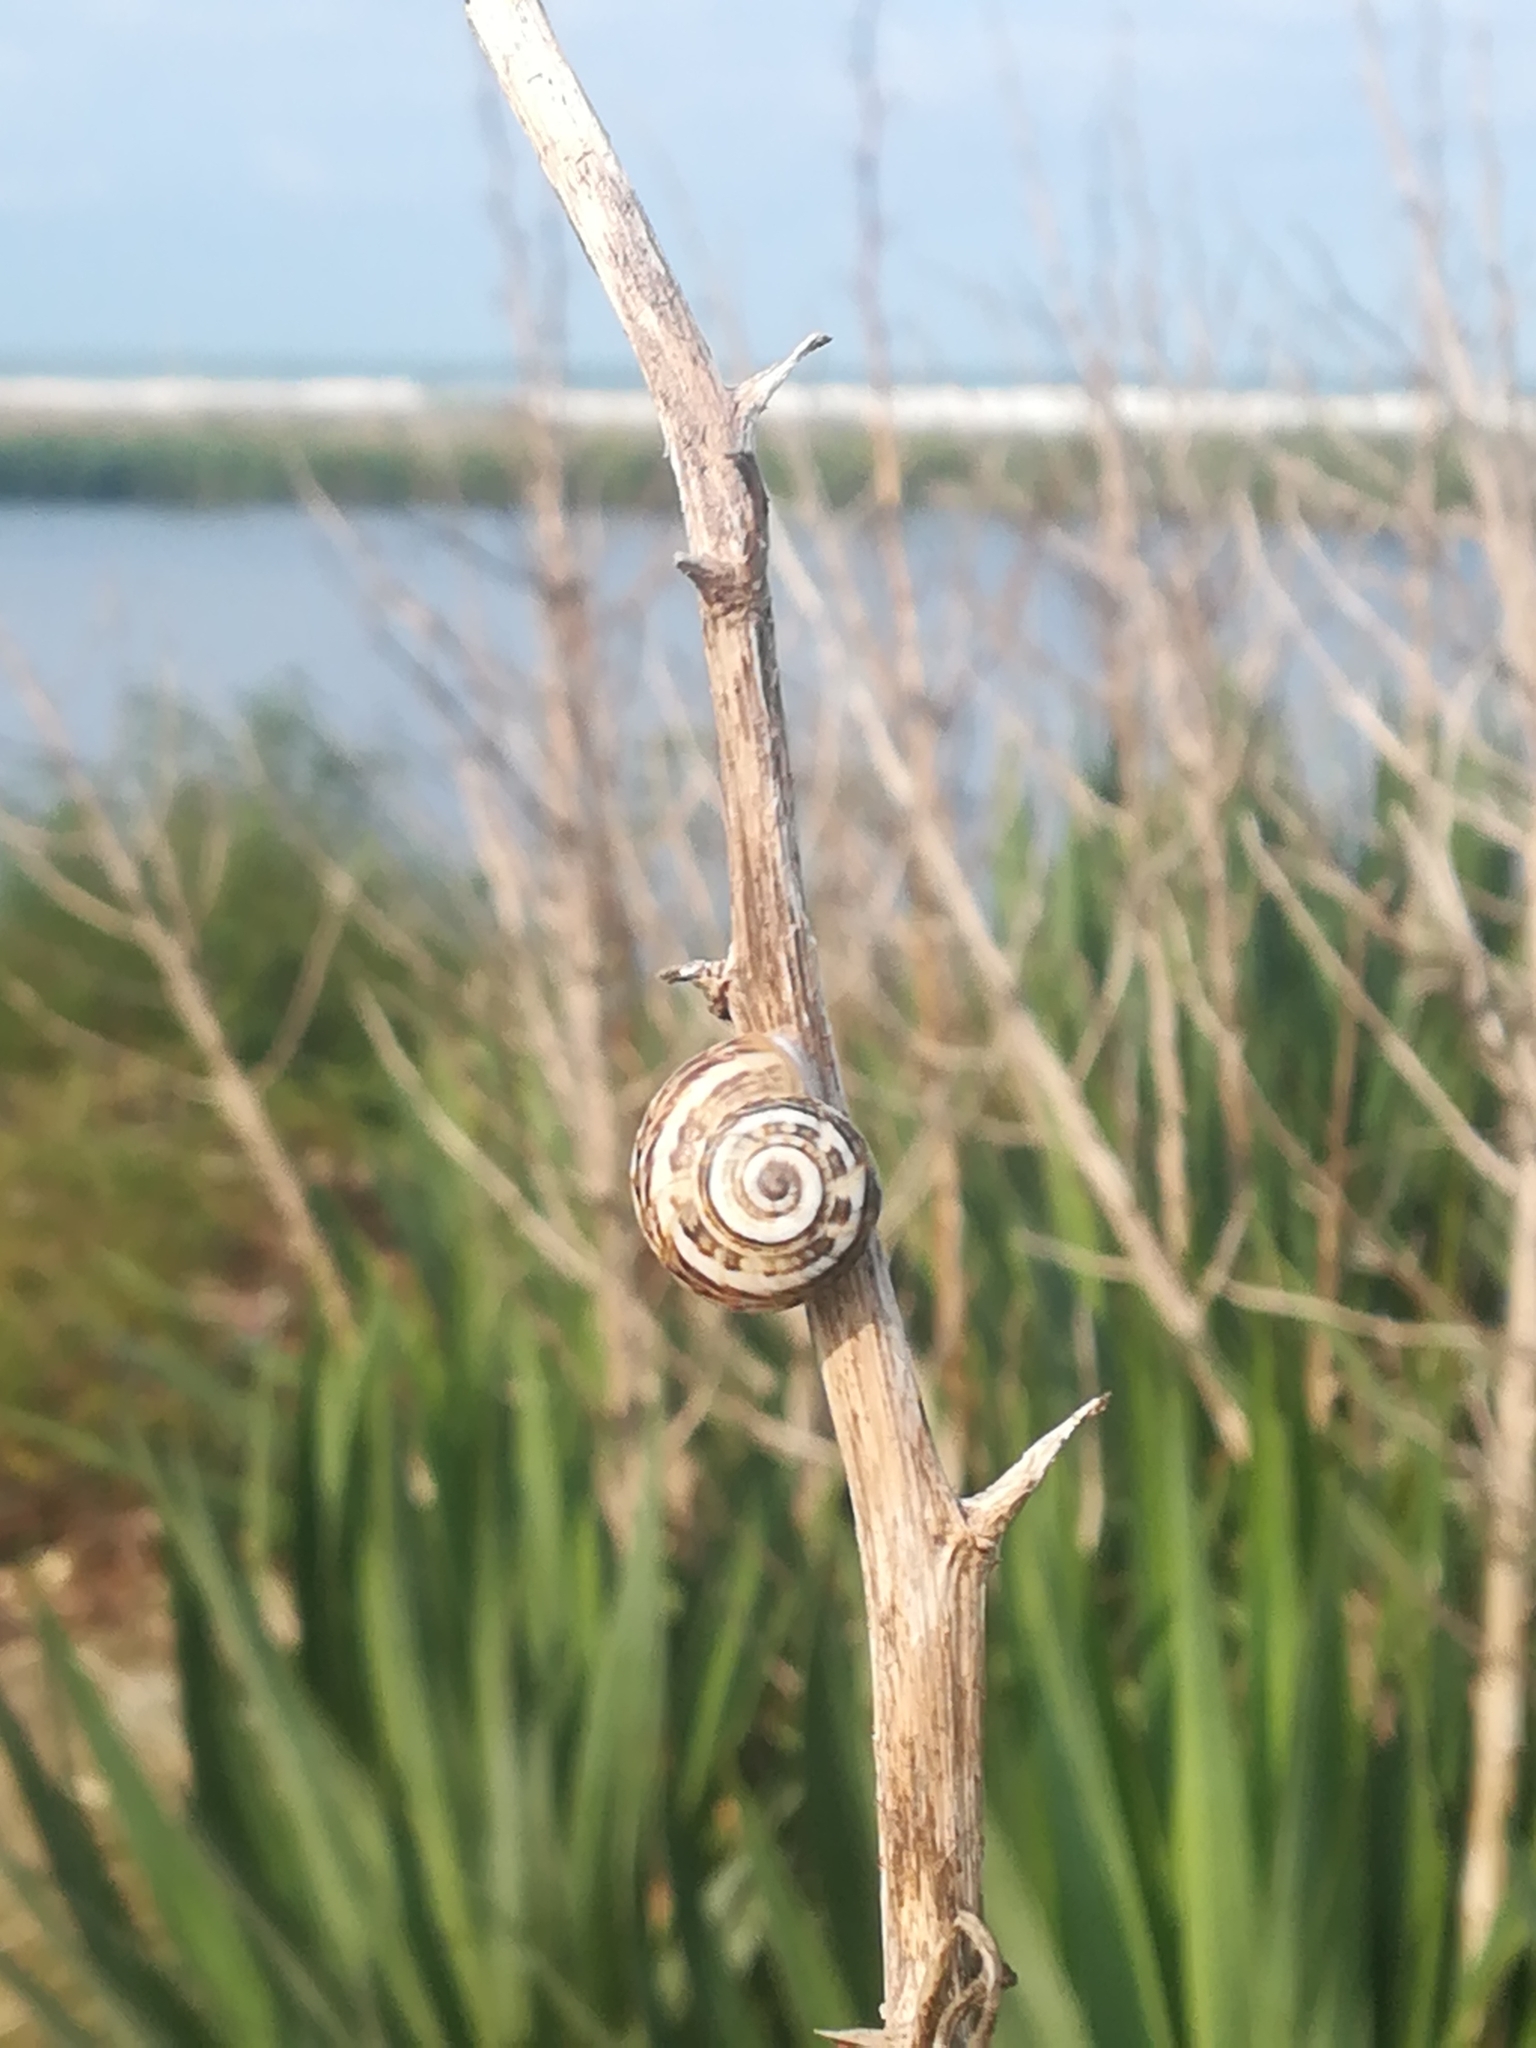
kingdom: Animalia
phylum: Mollusca
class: Gastropoda
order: Stylommatophora
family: Helicidae
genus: Theba
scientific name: Theba pisana
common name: White snail
